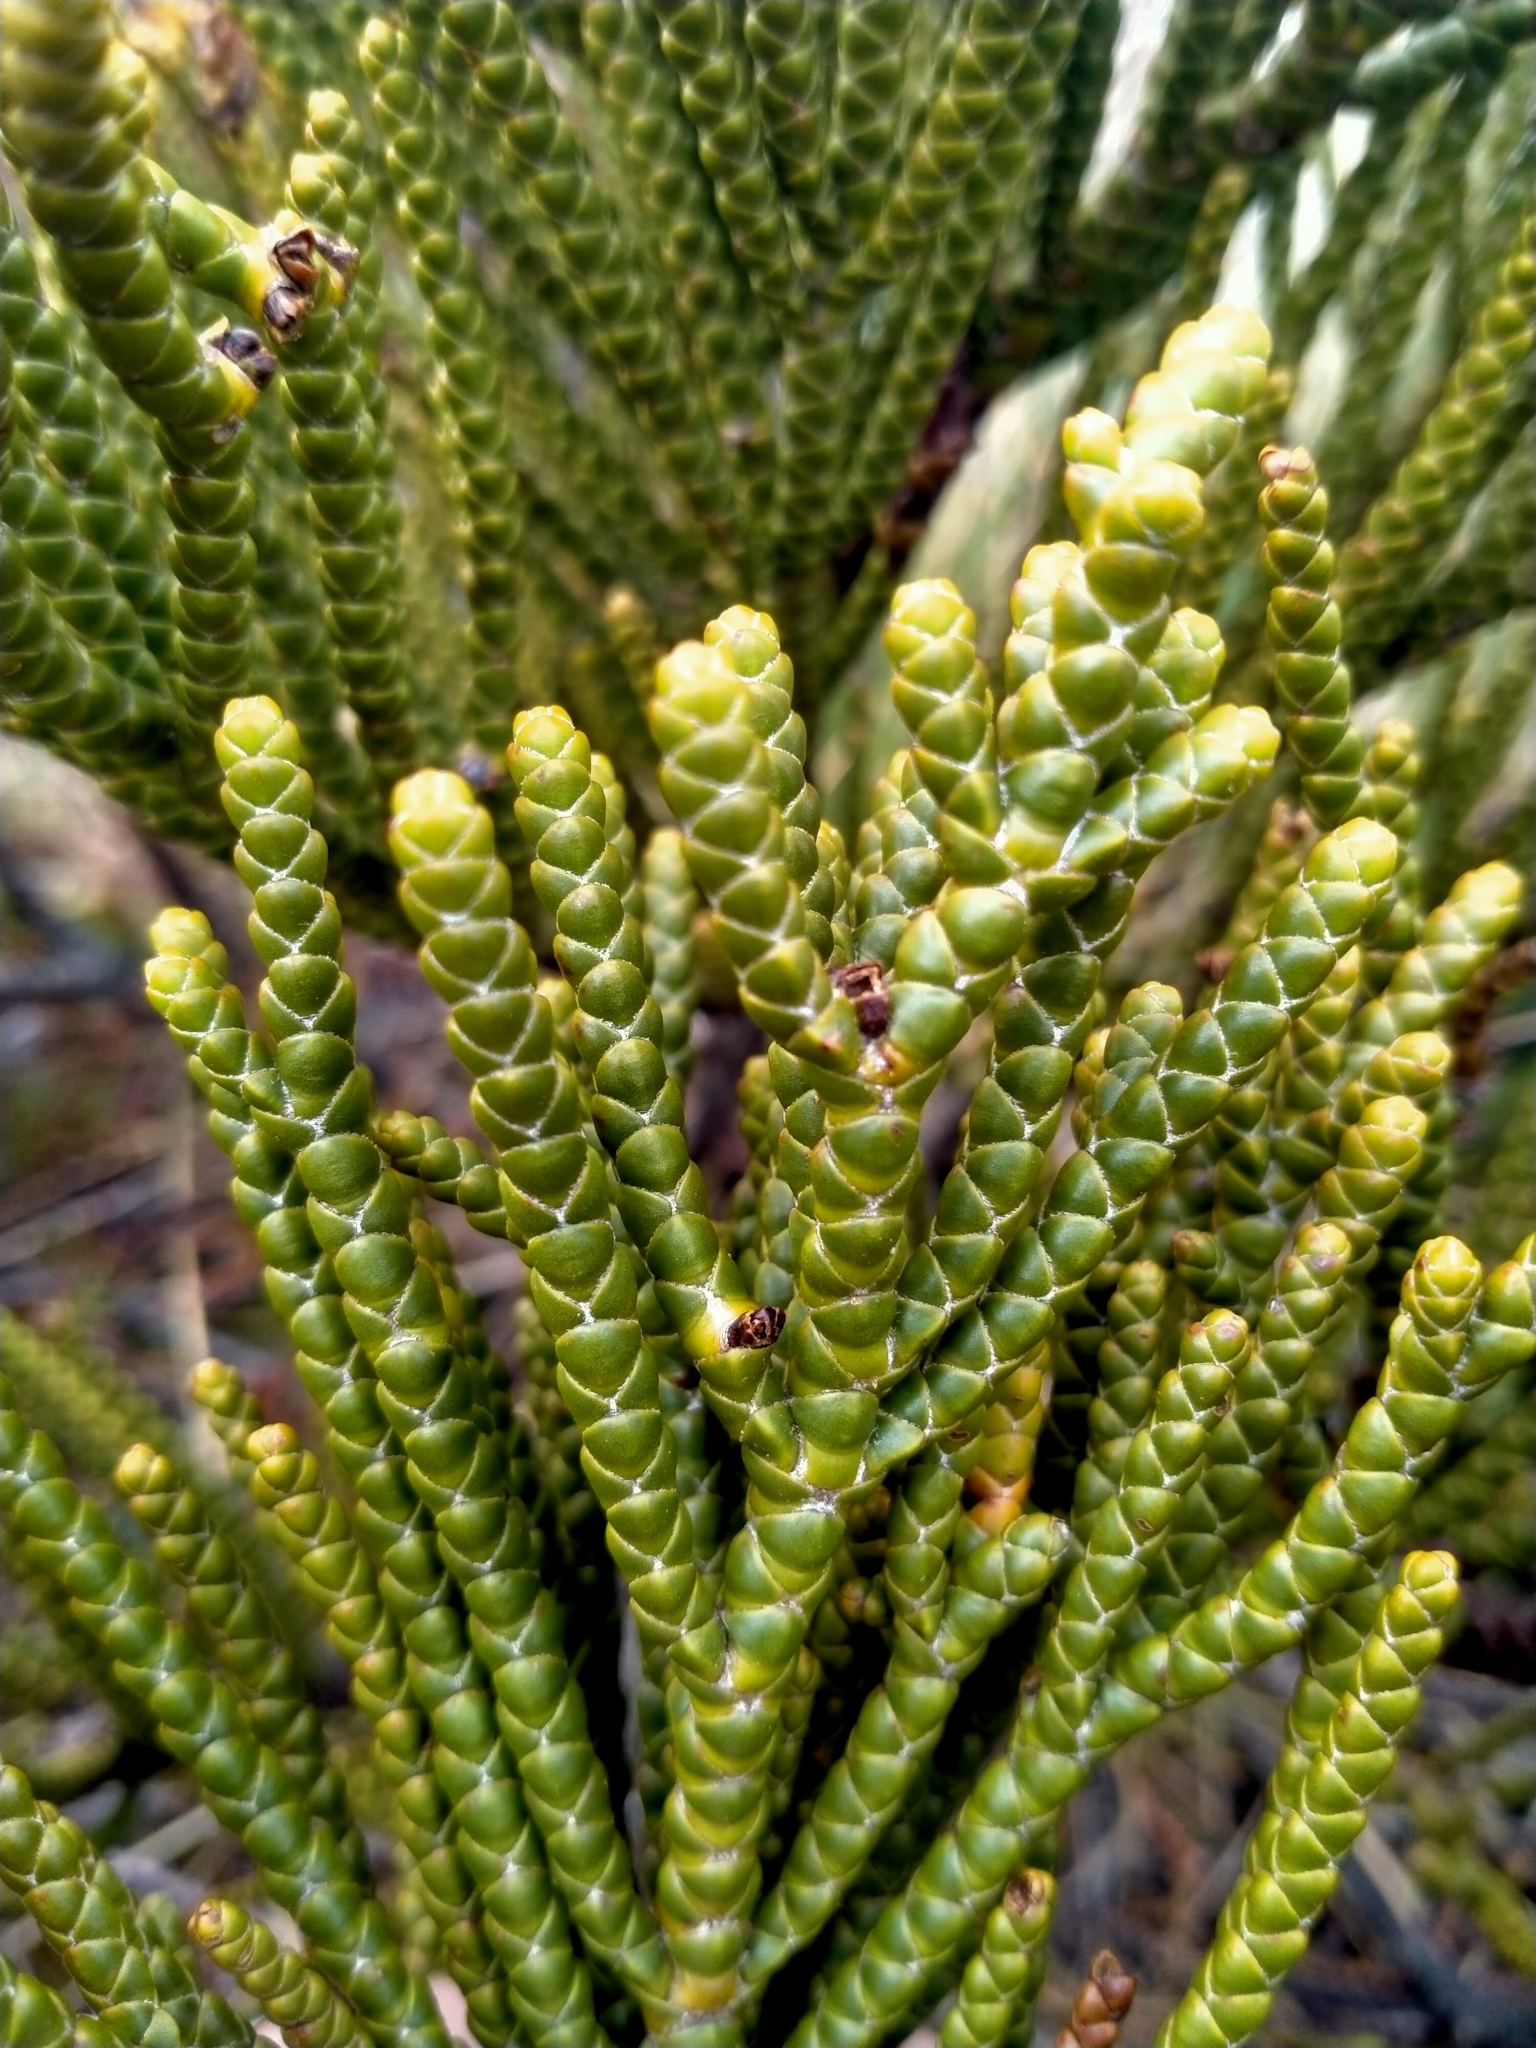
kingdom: Plantae
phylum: Tracheophyta
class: Magnoliopsida
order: Lamiales
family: Plantaginaceae
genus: Veronica
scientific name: Veronica hectorii
